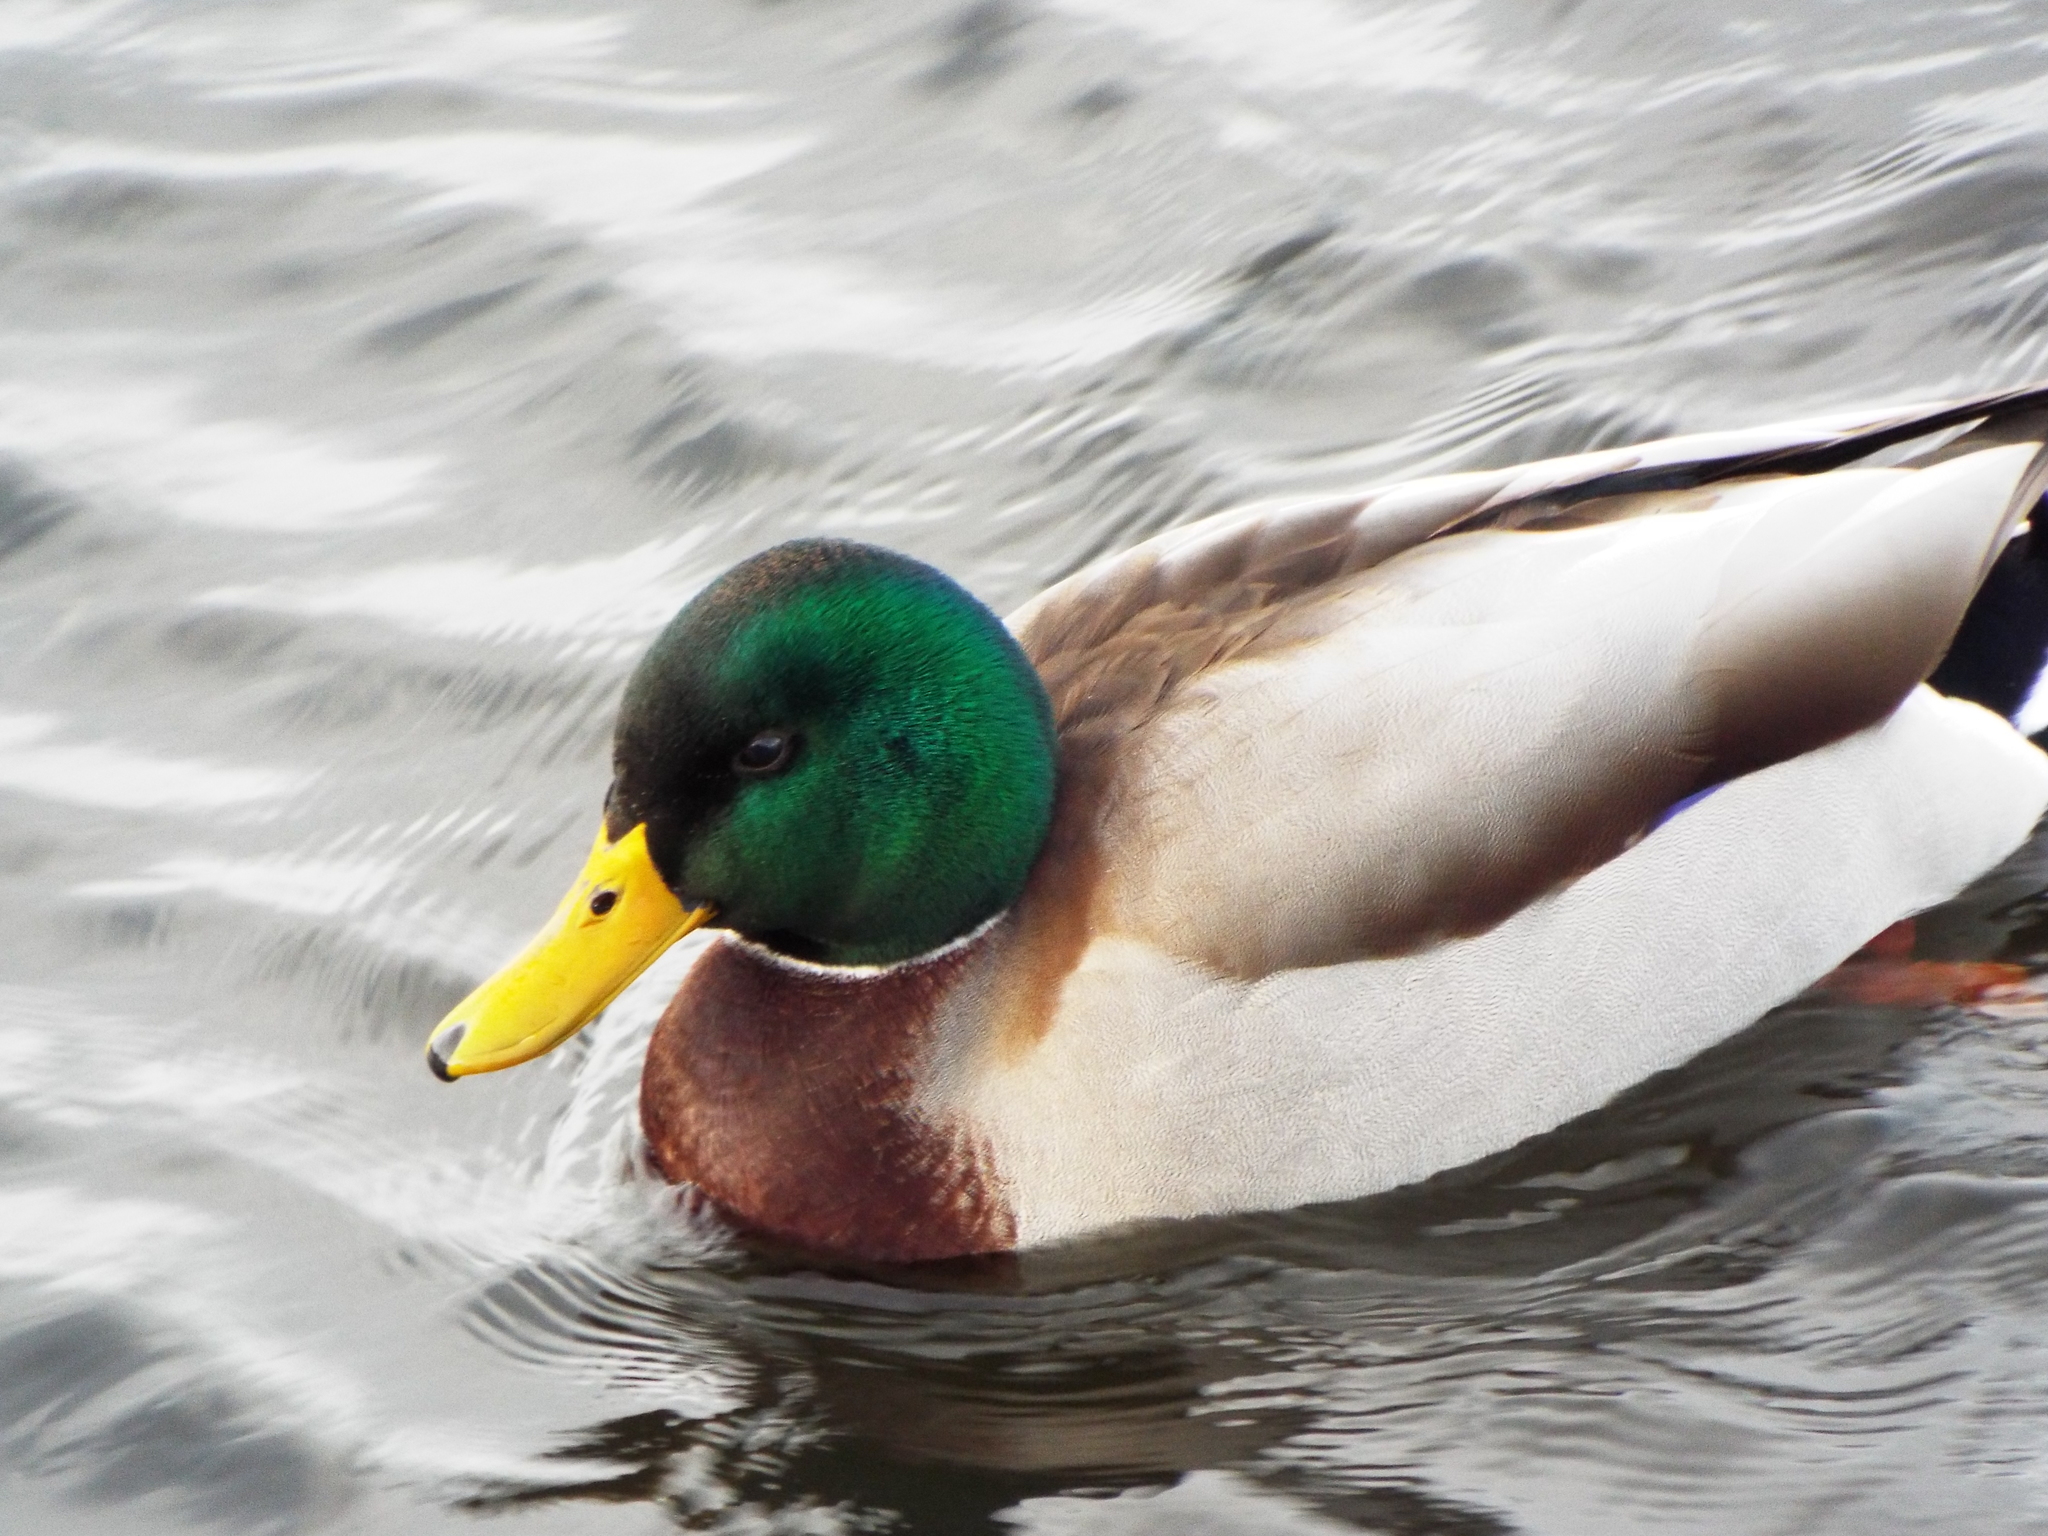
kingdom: Animalia
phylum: Chordata
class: Aves
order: Anseriformes
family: Anatidae
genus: Anas
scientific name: Anas platyrhynchos
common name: Mallard
